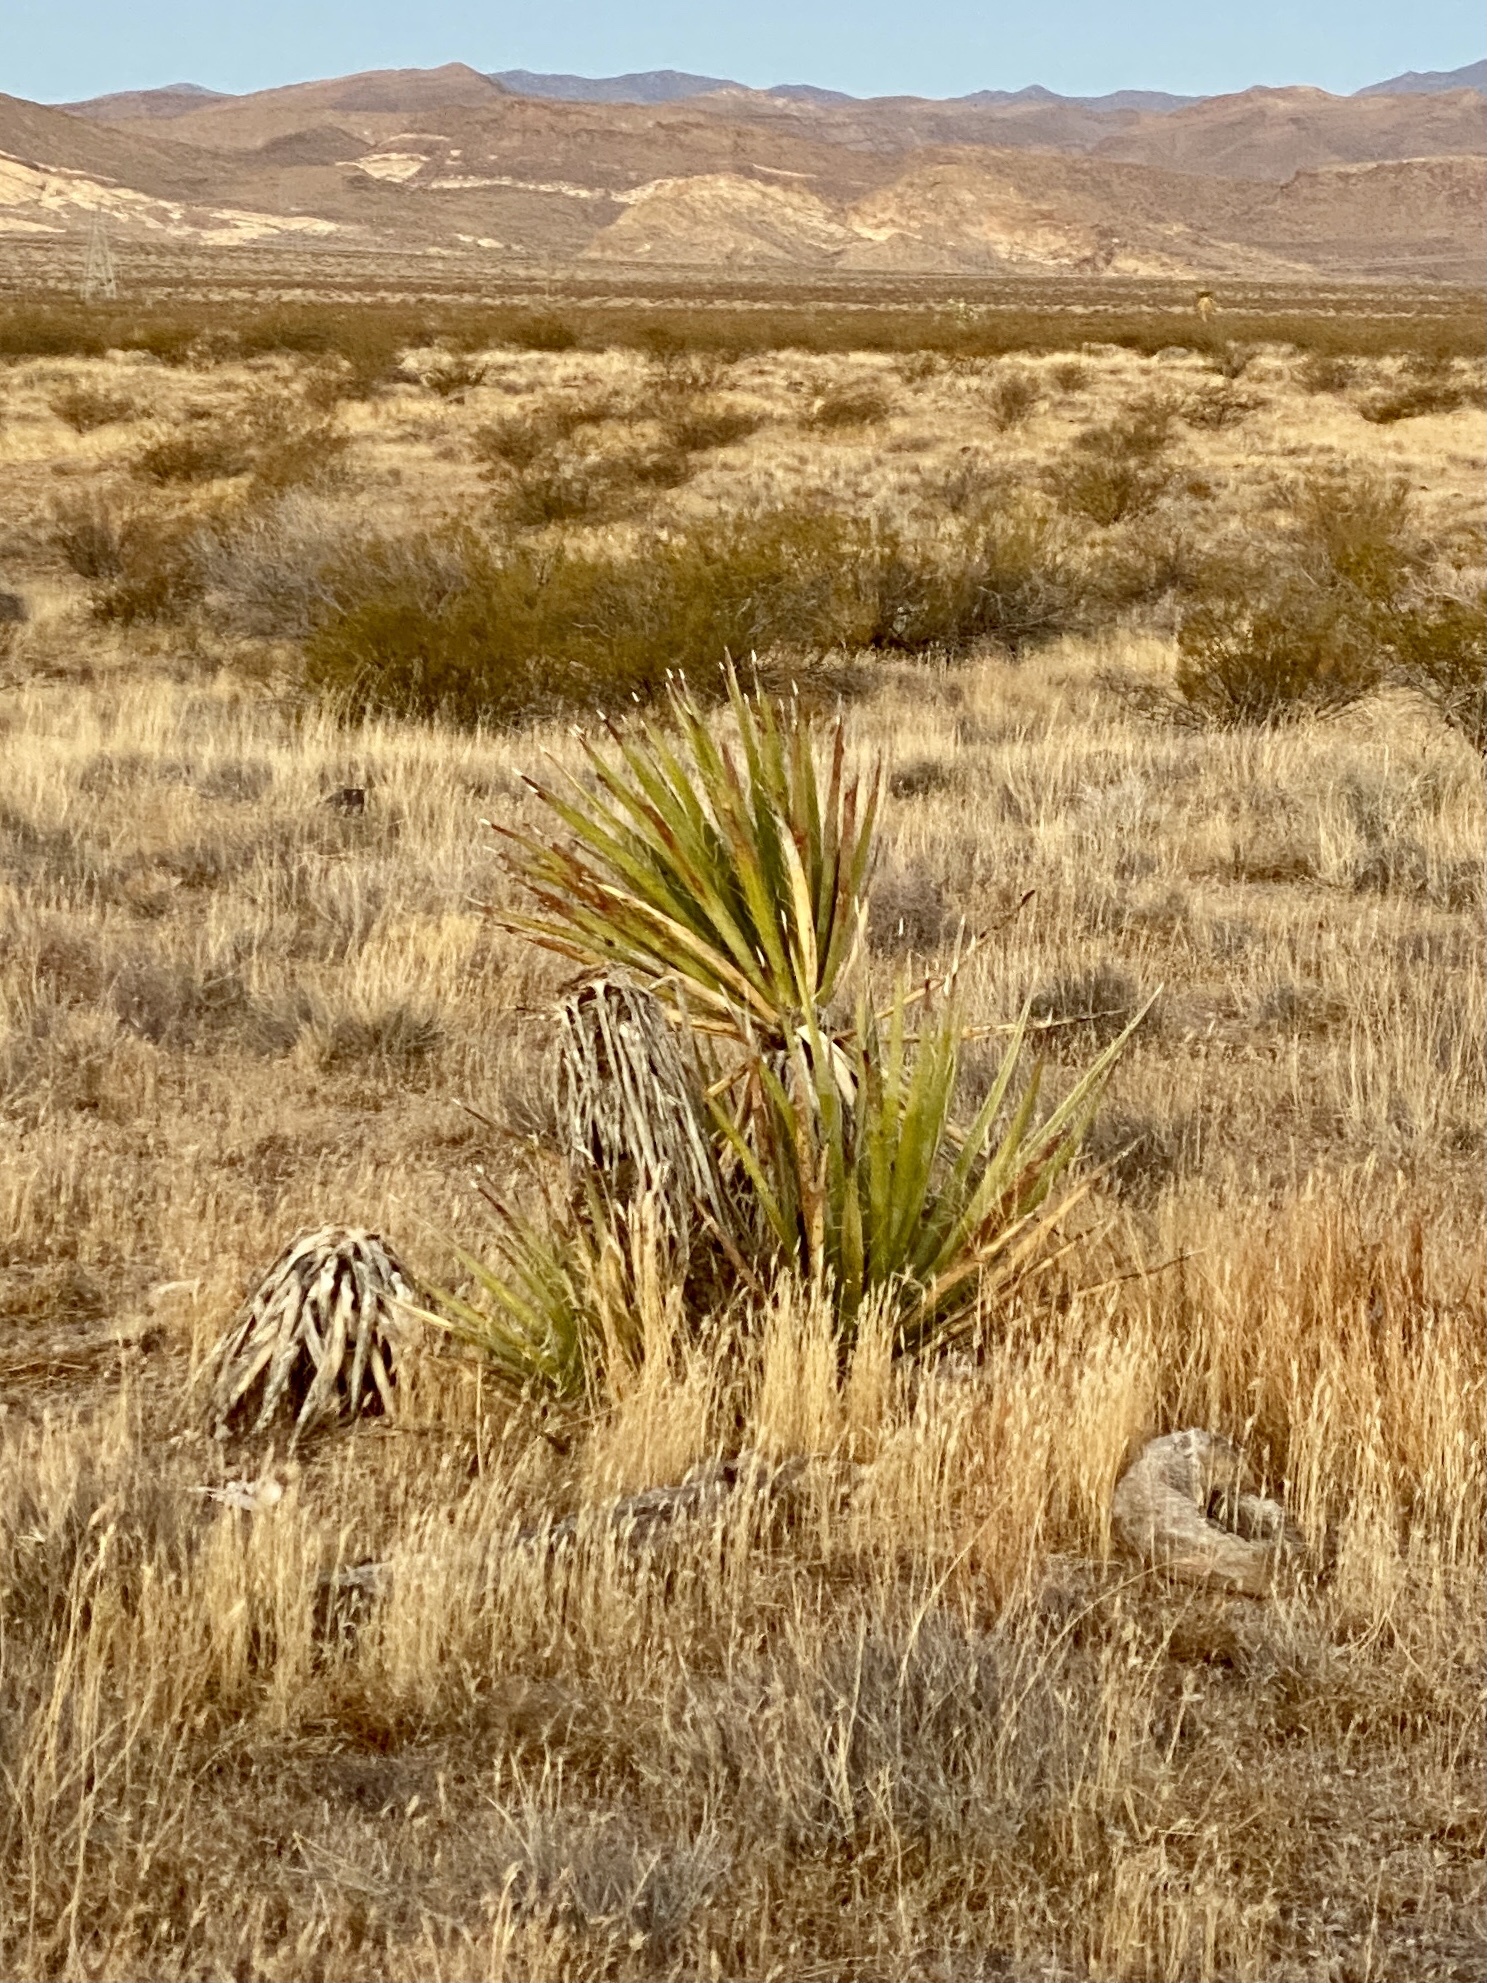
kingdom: Plantae
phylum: Tracheophyta
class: Liliopsida
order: Asparagales
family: Asparagaceae
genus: Yucca
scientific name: Yucca schidigera
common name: Mojave yucca
